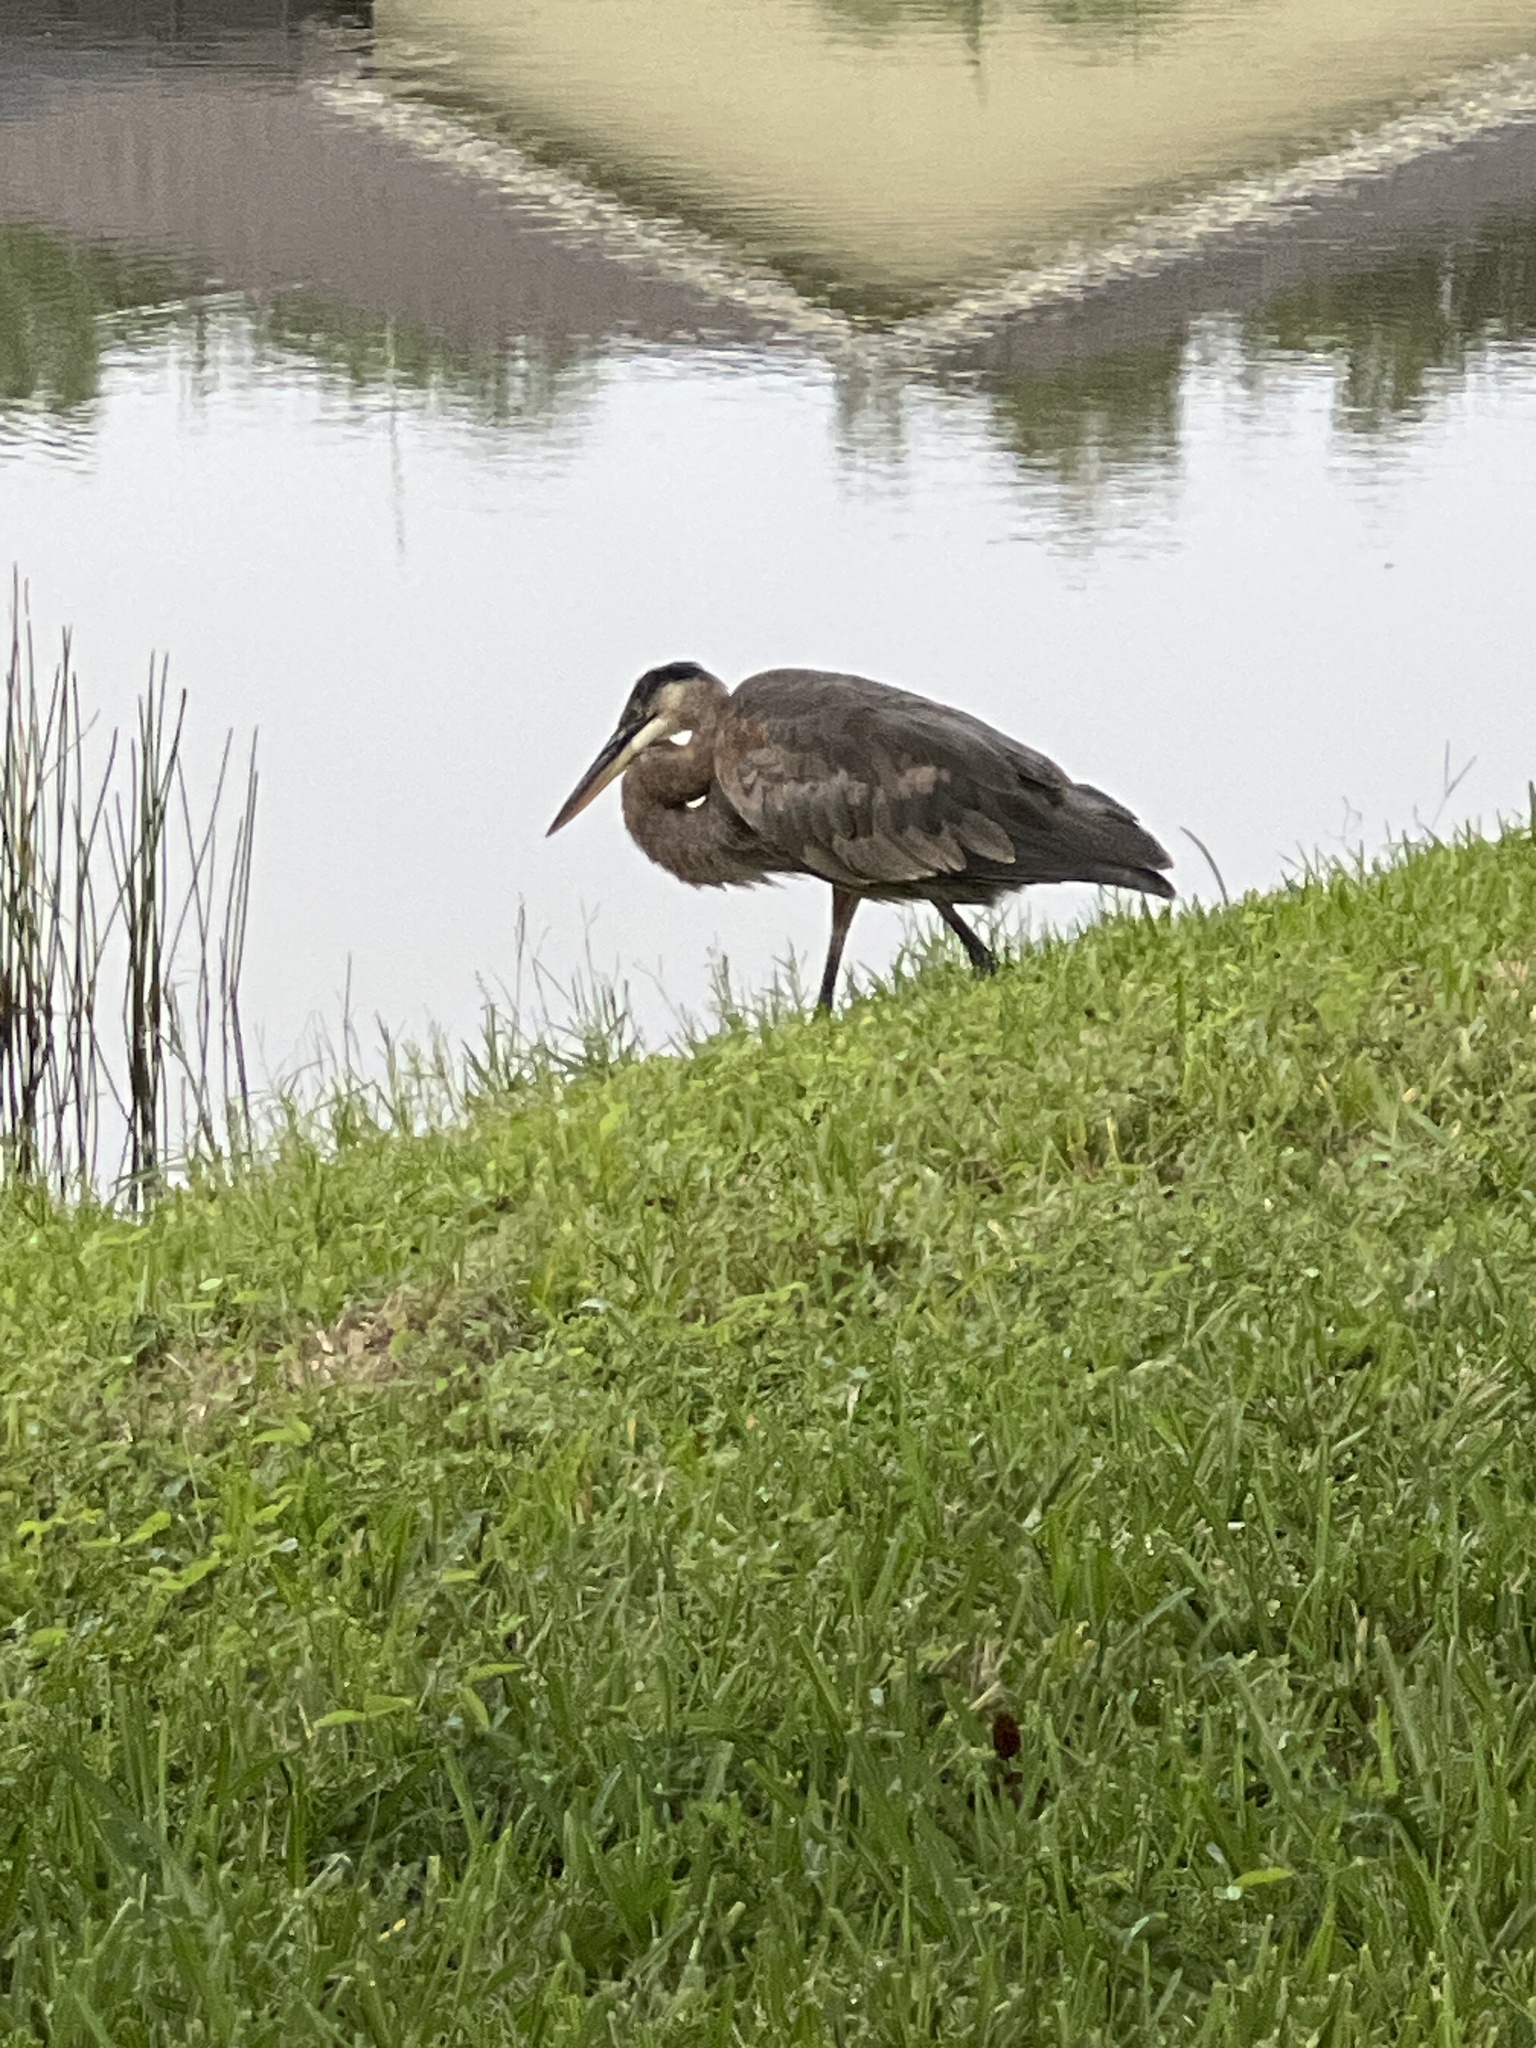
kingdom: Animalia
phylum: Chordata
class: Aves
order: Pelecaniformes
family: Ardeidae
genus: Ardea
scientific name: Ardea herodias
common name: Great blue heron
